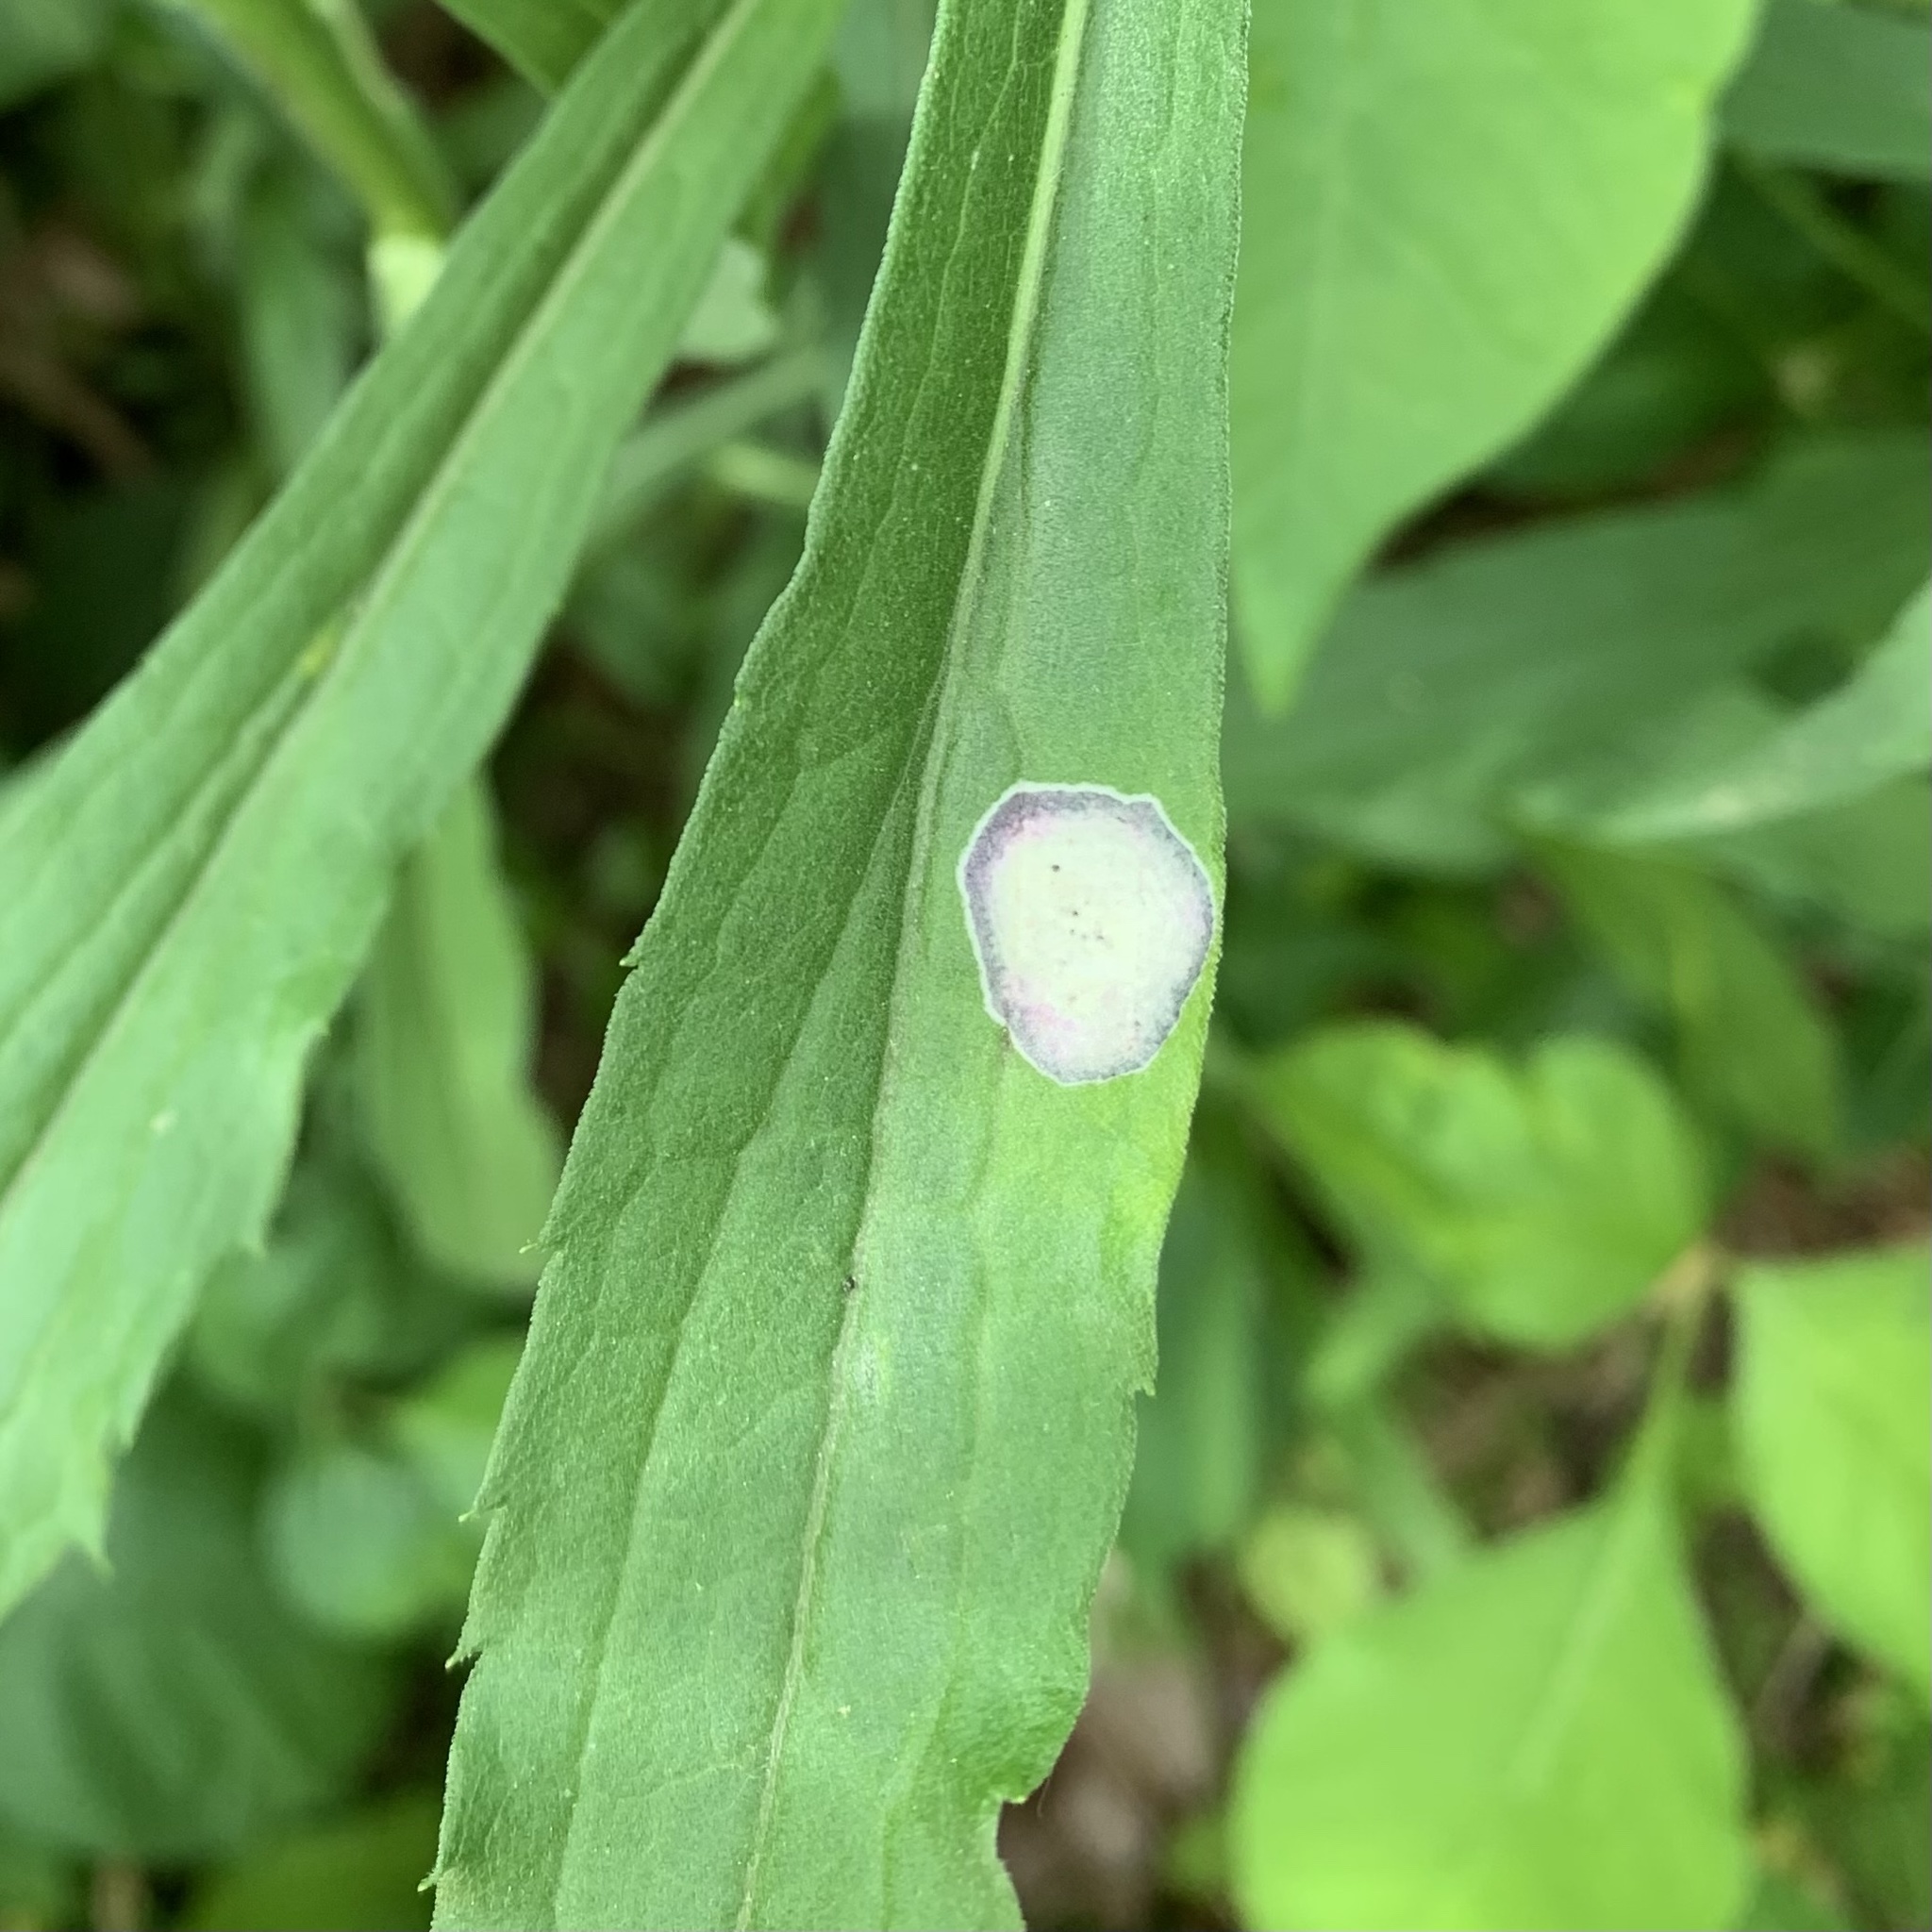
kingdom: Animalia
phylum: Arthropoda
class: Insecta
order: Diptera
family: Cecidomyiidae
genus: Asteromyia
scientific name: Asteromyia carbonifera
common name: Carbonifera goldenrod gall midge
